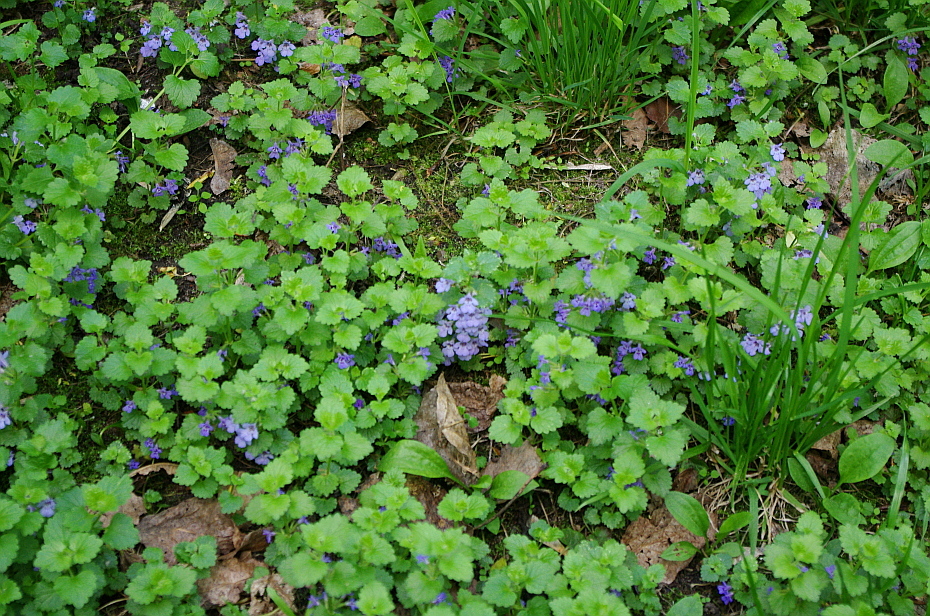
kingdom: Plantae
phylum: Tracheophyta
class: Magnoliopsida
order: Lamiales
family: Lamiaceae
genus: Glechoma
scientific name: Glechoma hederacea
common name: Ground ivy
